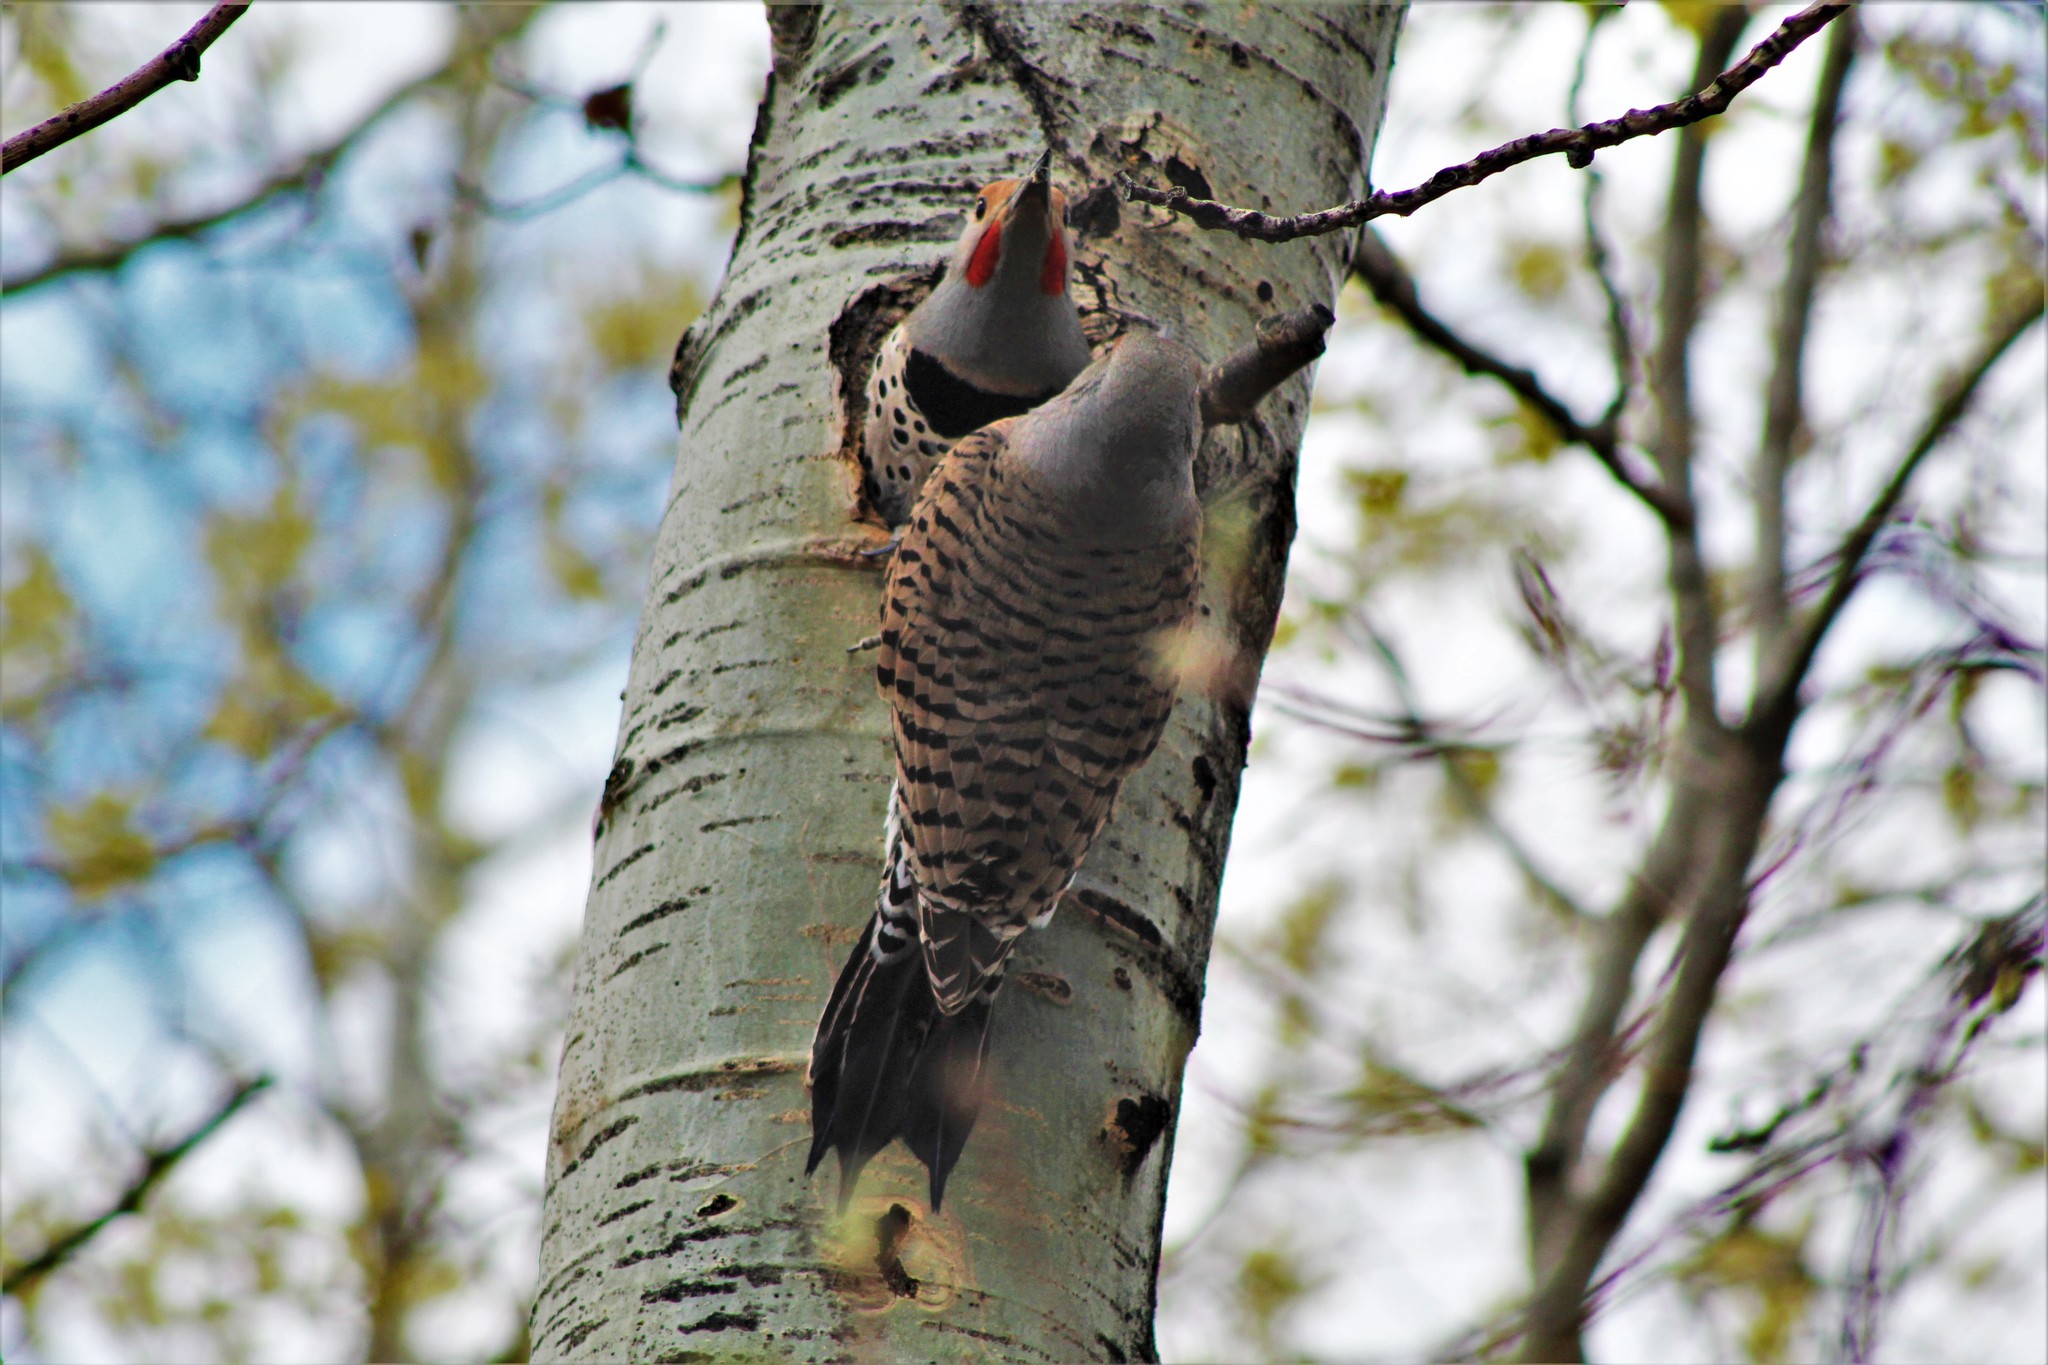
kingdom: Animalia
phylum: Chordata
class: Aves
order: Piciformes
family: Picidae
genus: Colaptes
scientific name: Colaptes auratus
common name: Northern flicker
